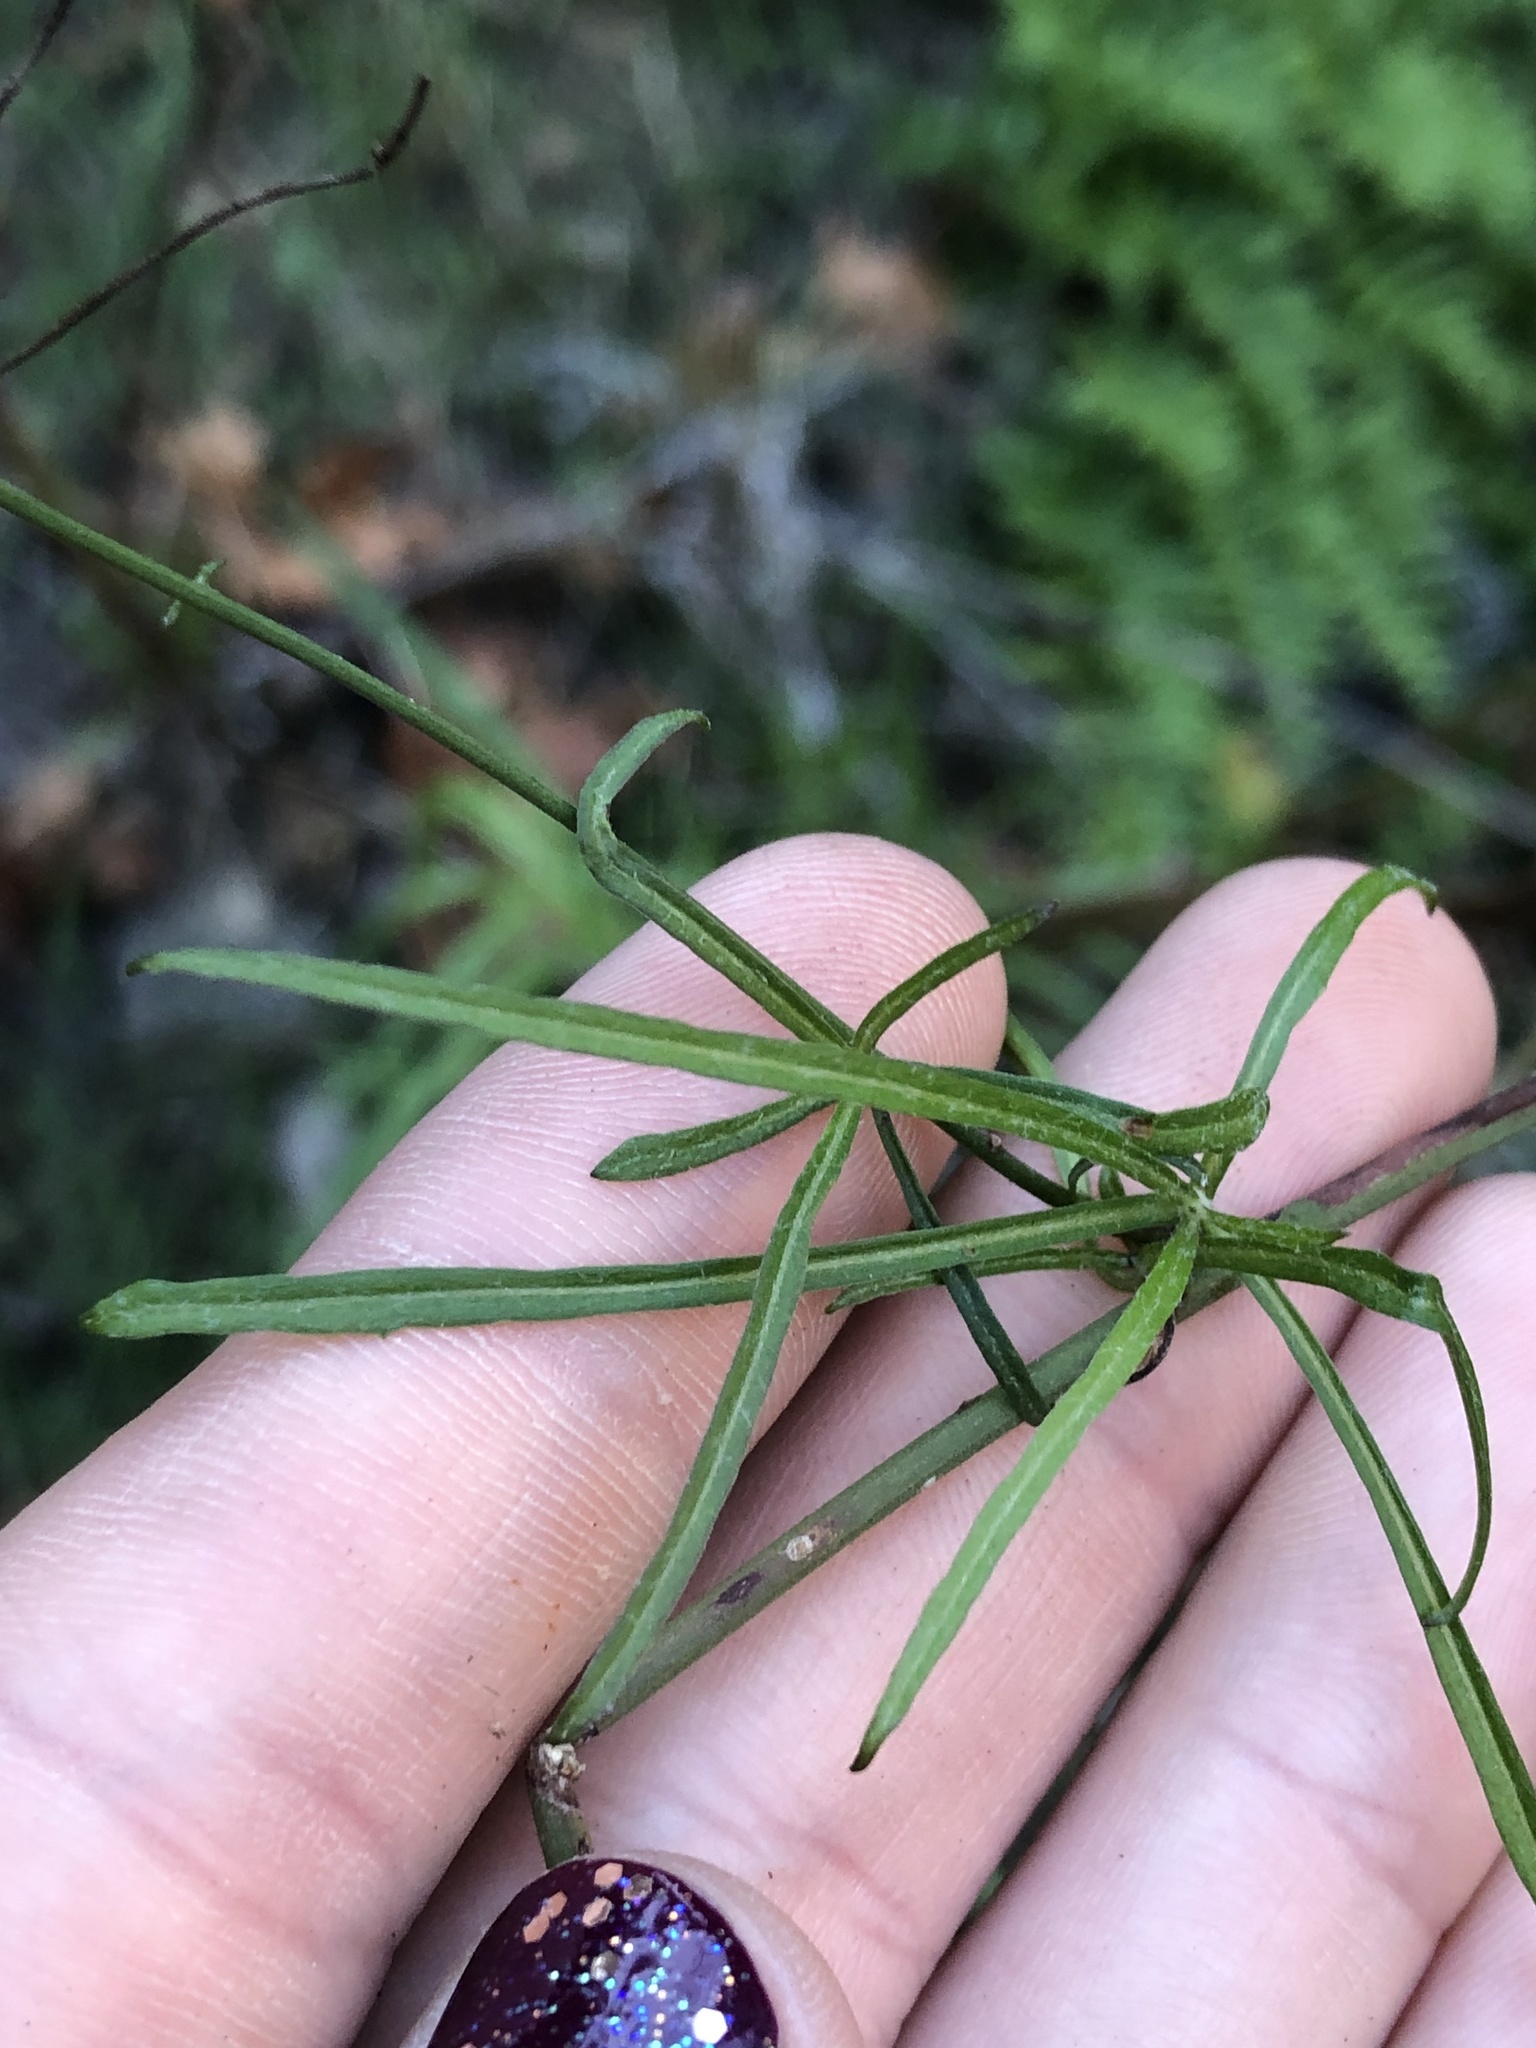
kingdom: Plantae
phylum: Tracheophyta
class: Magnoliopsida
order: Asterales
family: Asteraceae
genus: Malacothrix
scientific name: Malacothrix saxatilis
